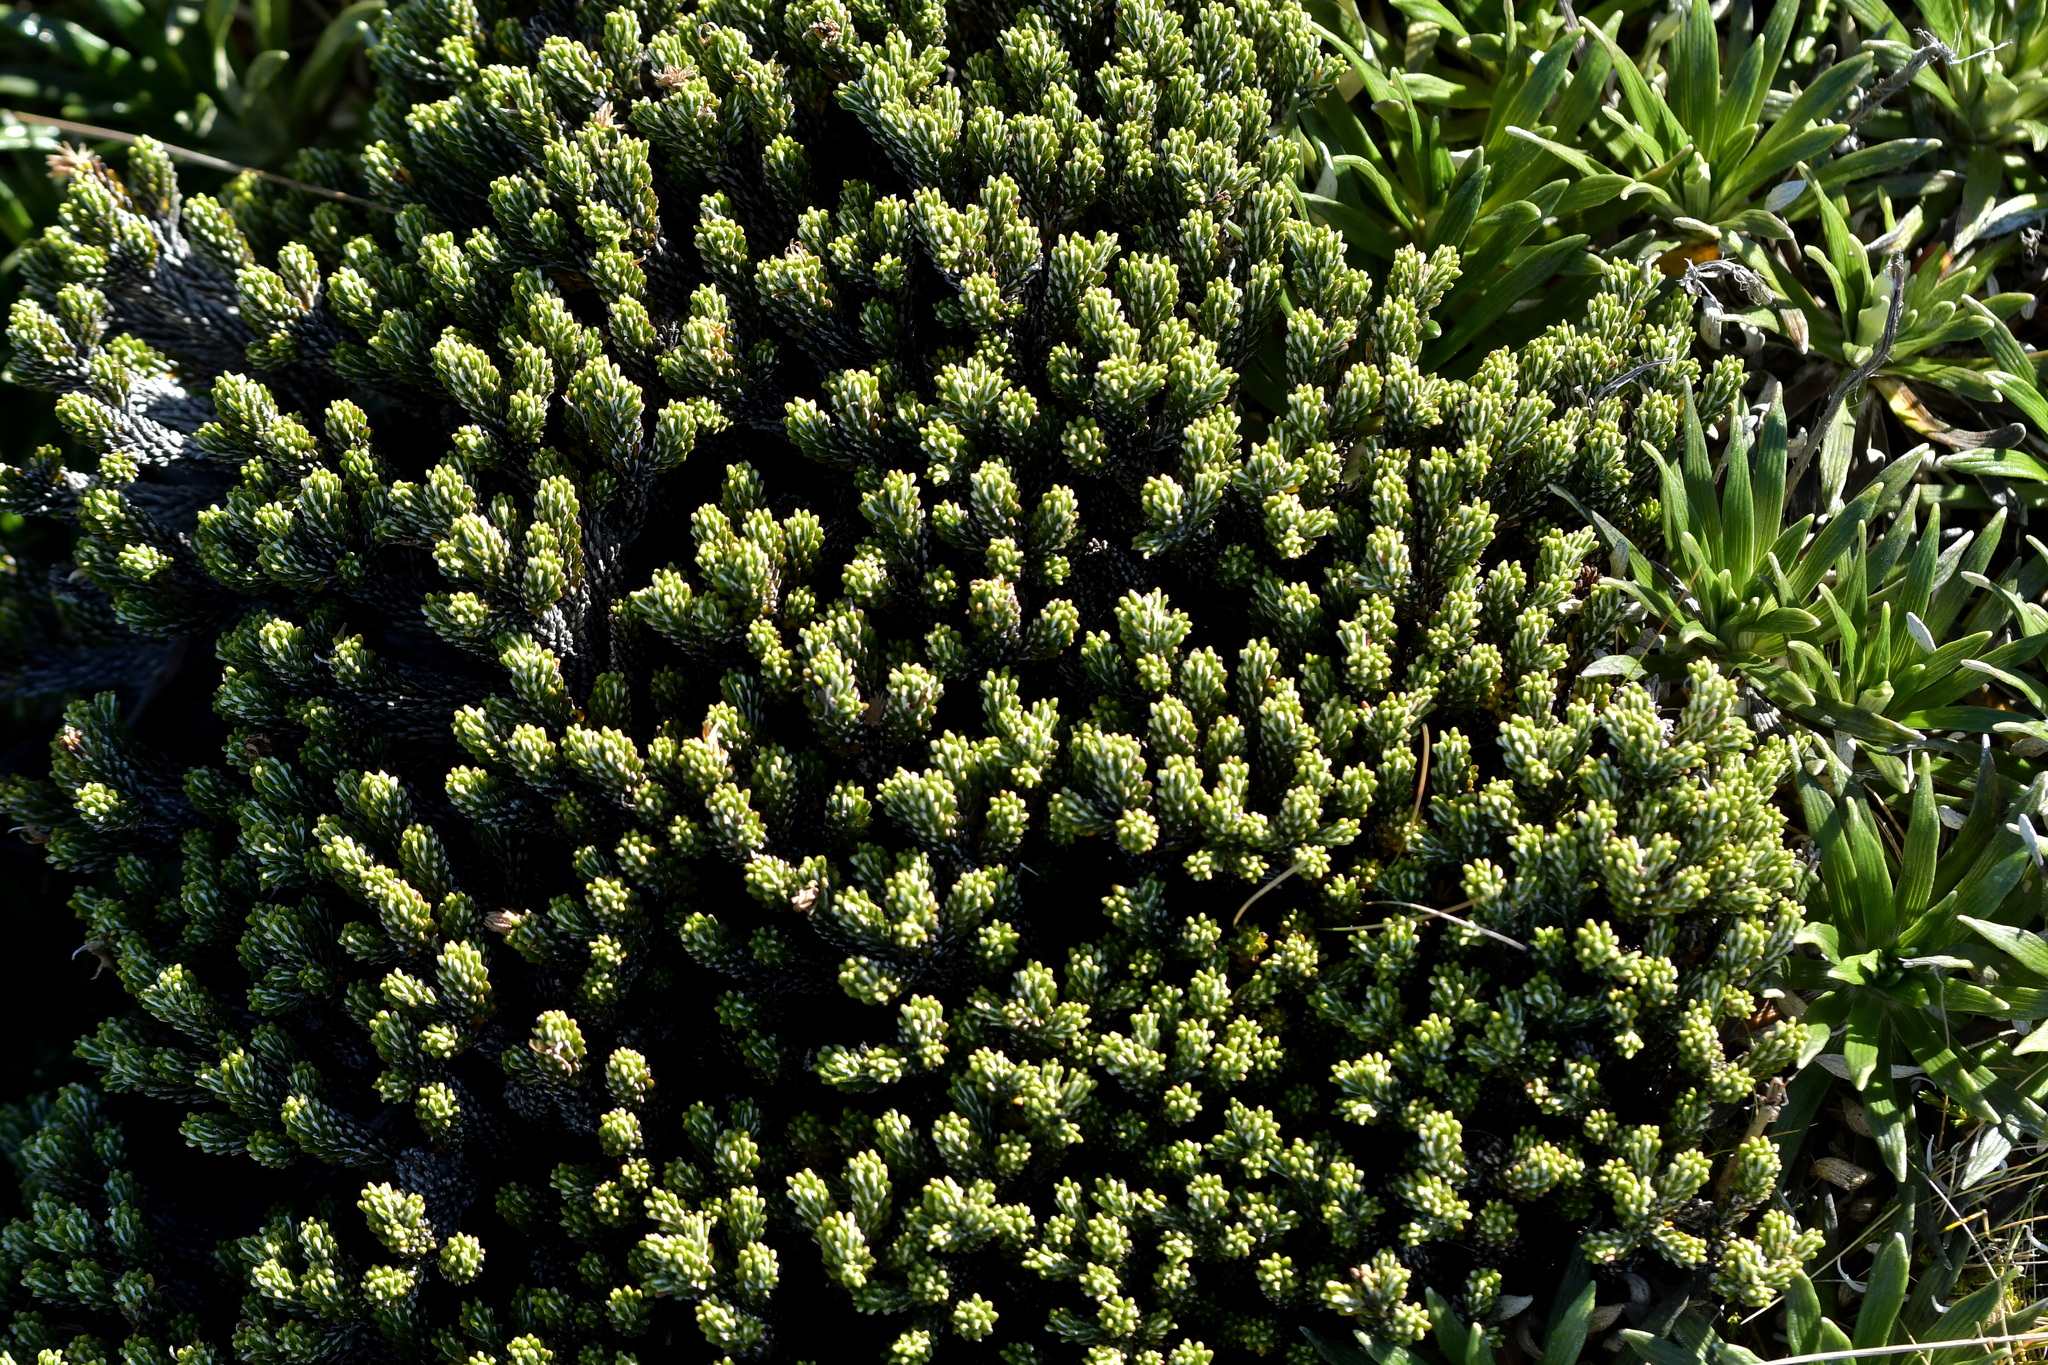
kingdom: Plantae
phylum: Tracheophyta
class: Magnoliopsida
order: Asterales
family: Asteraceae
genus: Celmisia
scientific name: Celmisia ramulosa
